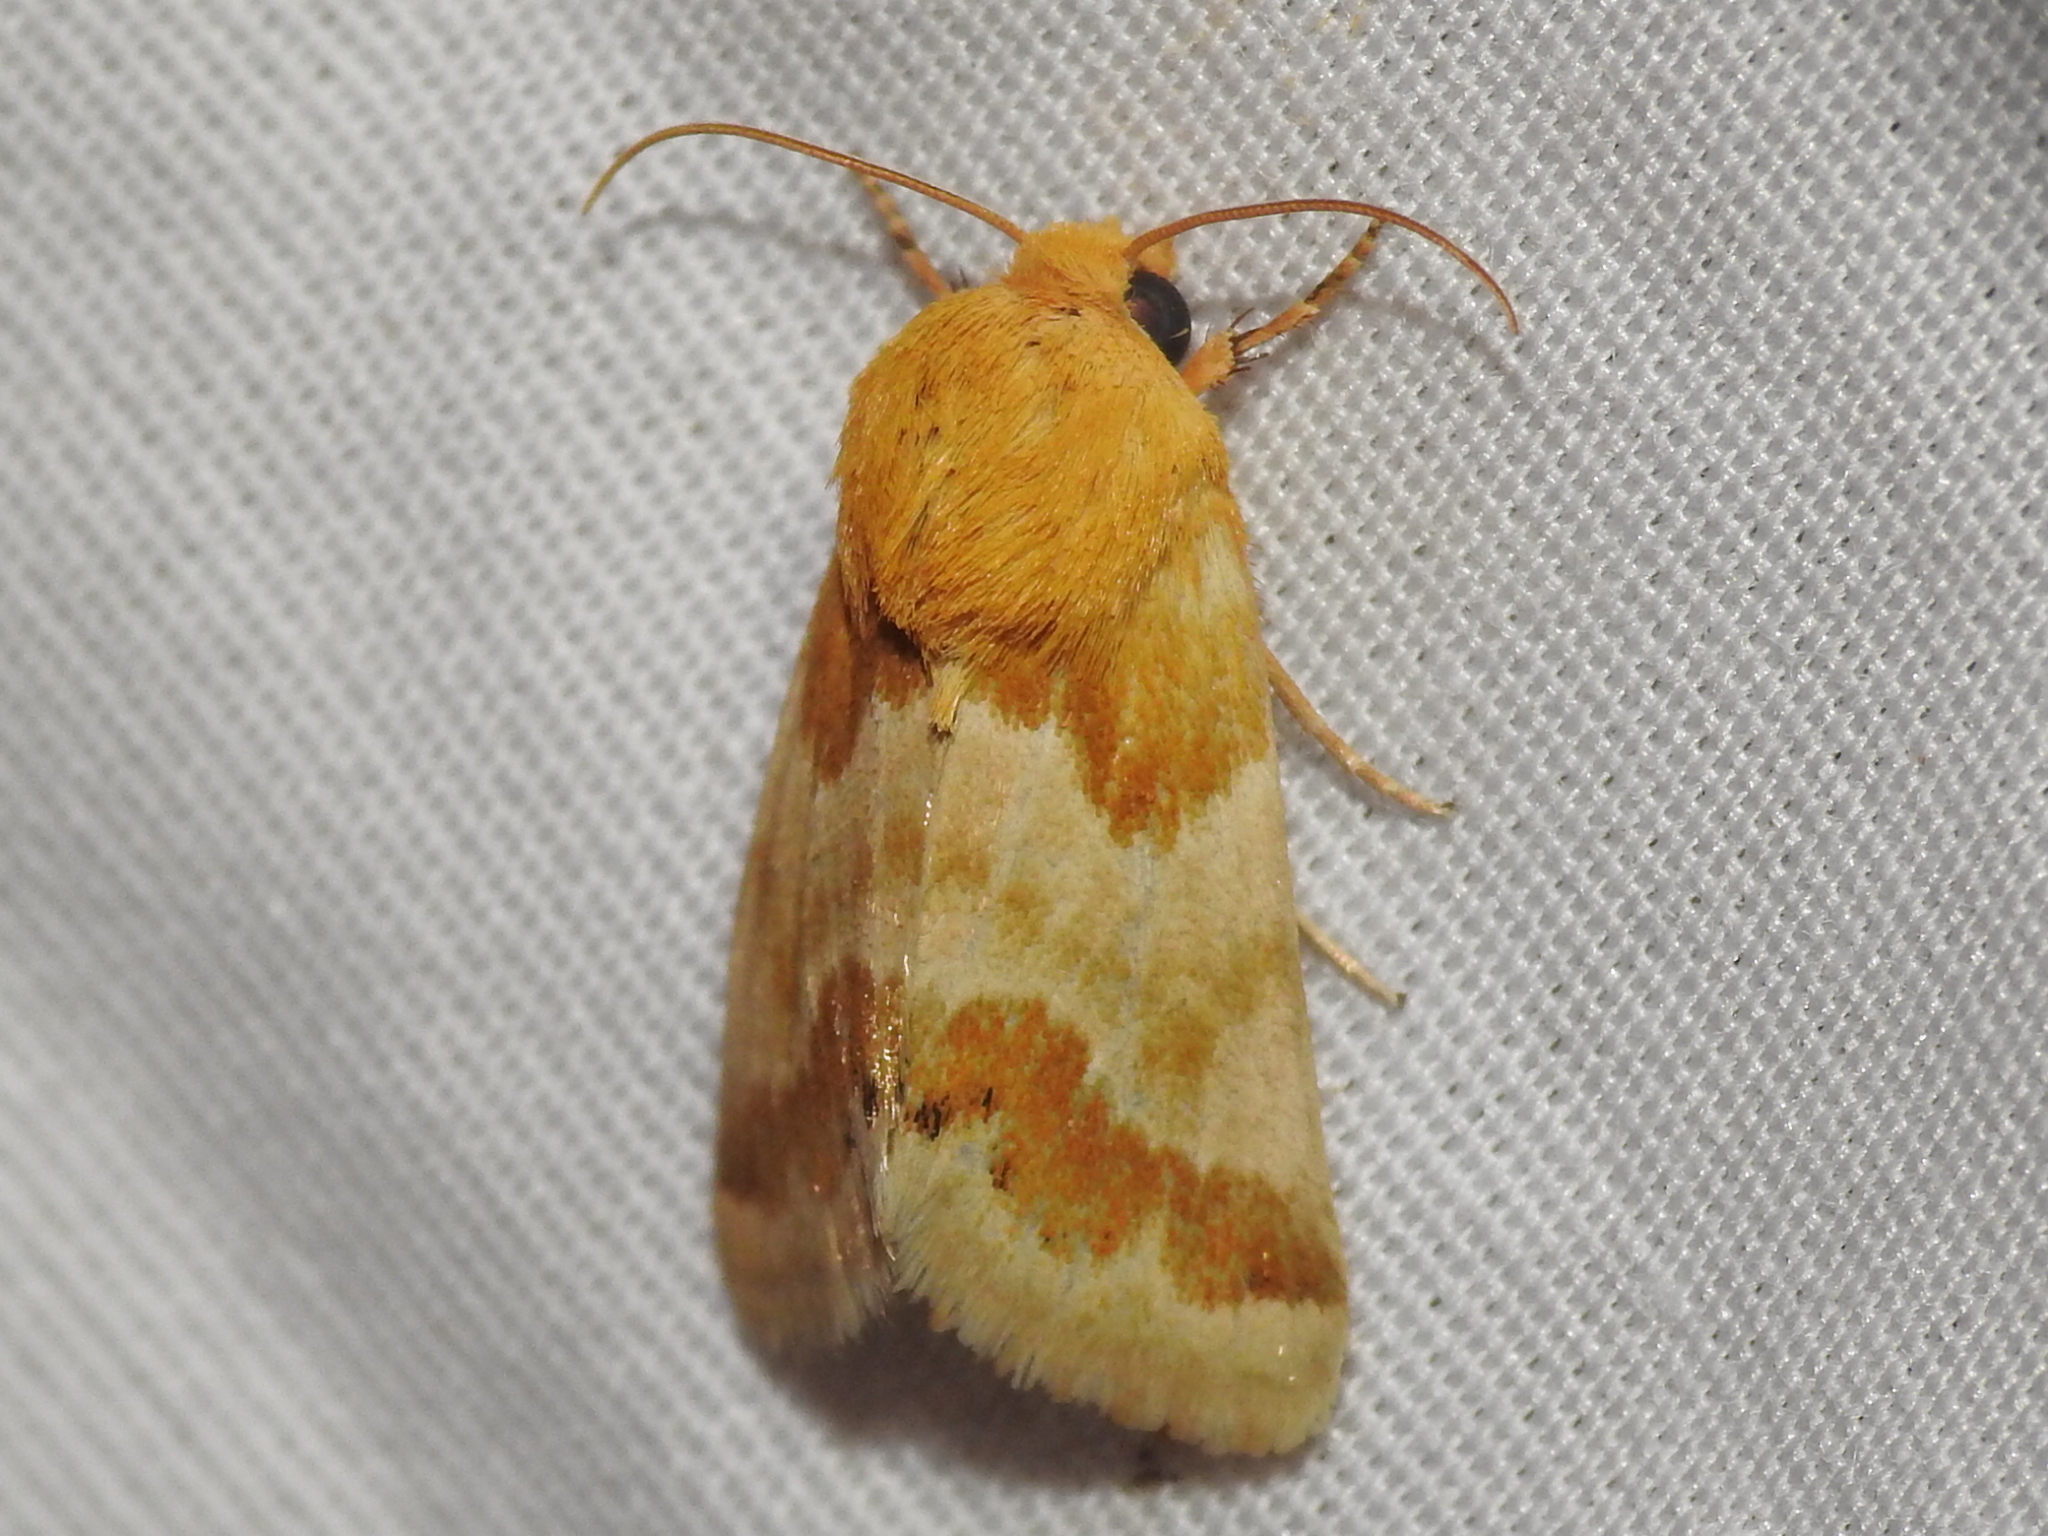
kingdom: Animalia
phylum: Arthropoda
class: Insecta
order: Lepidoptera
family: Noctuidae
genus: Schinia
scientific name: Schinia siren
